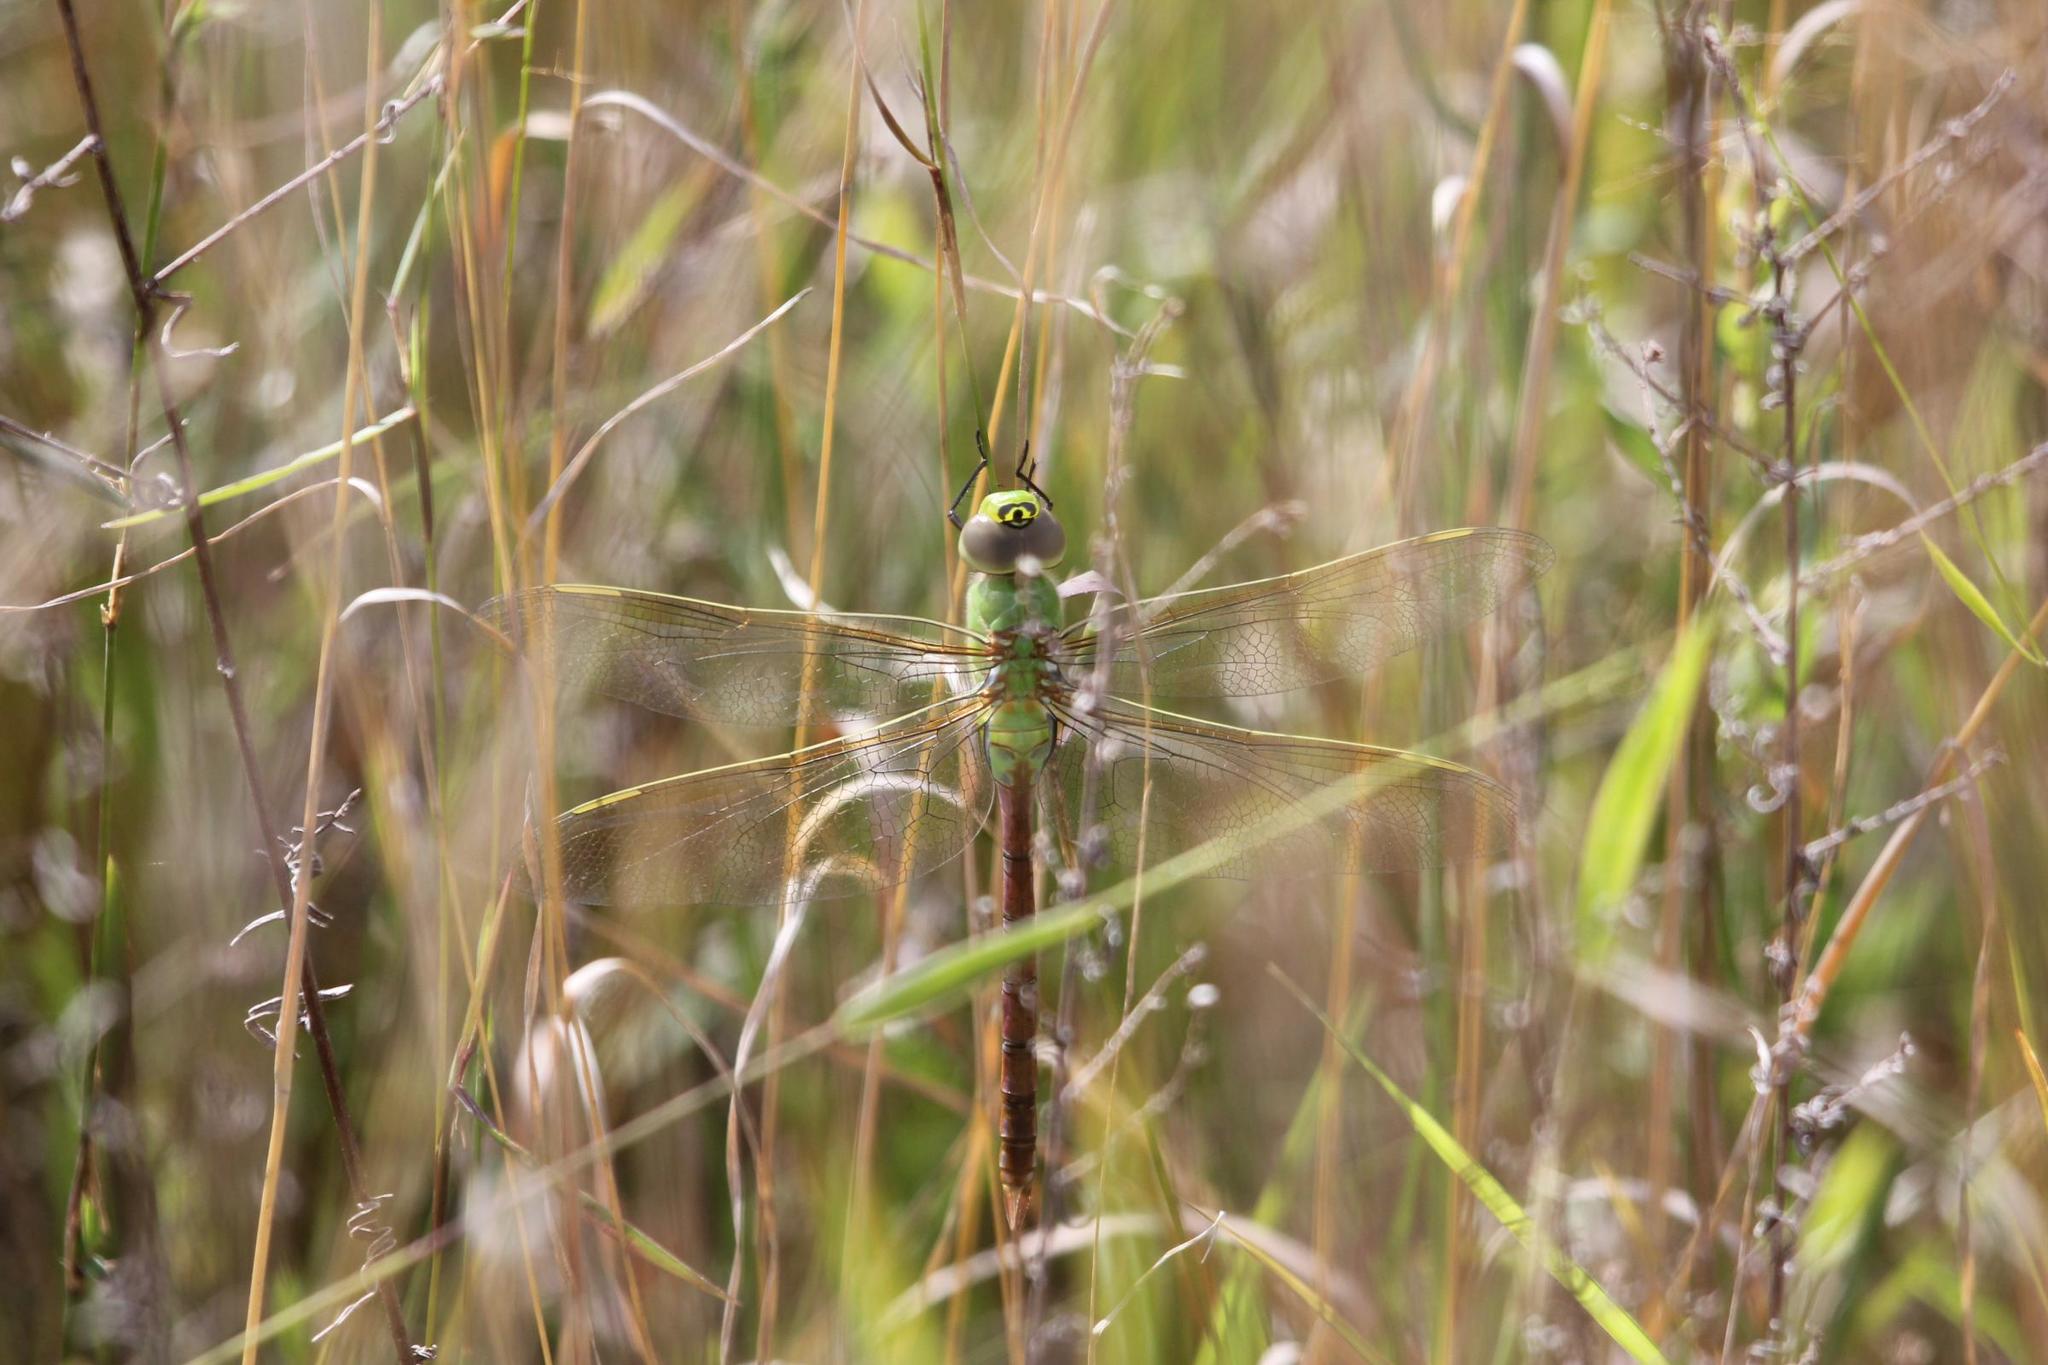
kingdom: Animalia
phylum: Arthropoda
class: Insecta
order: Odonata
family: Aeshnidae
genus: Anax
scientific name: Anax junius
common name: Common green darner
